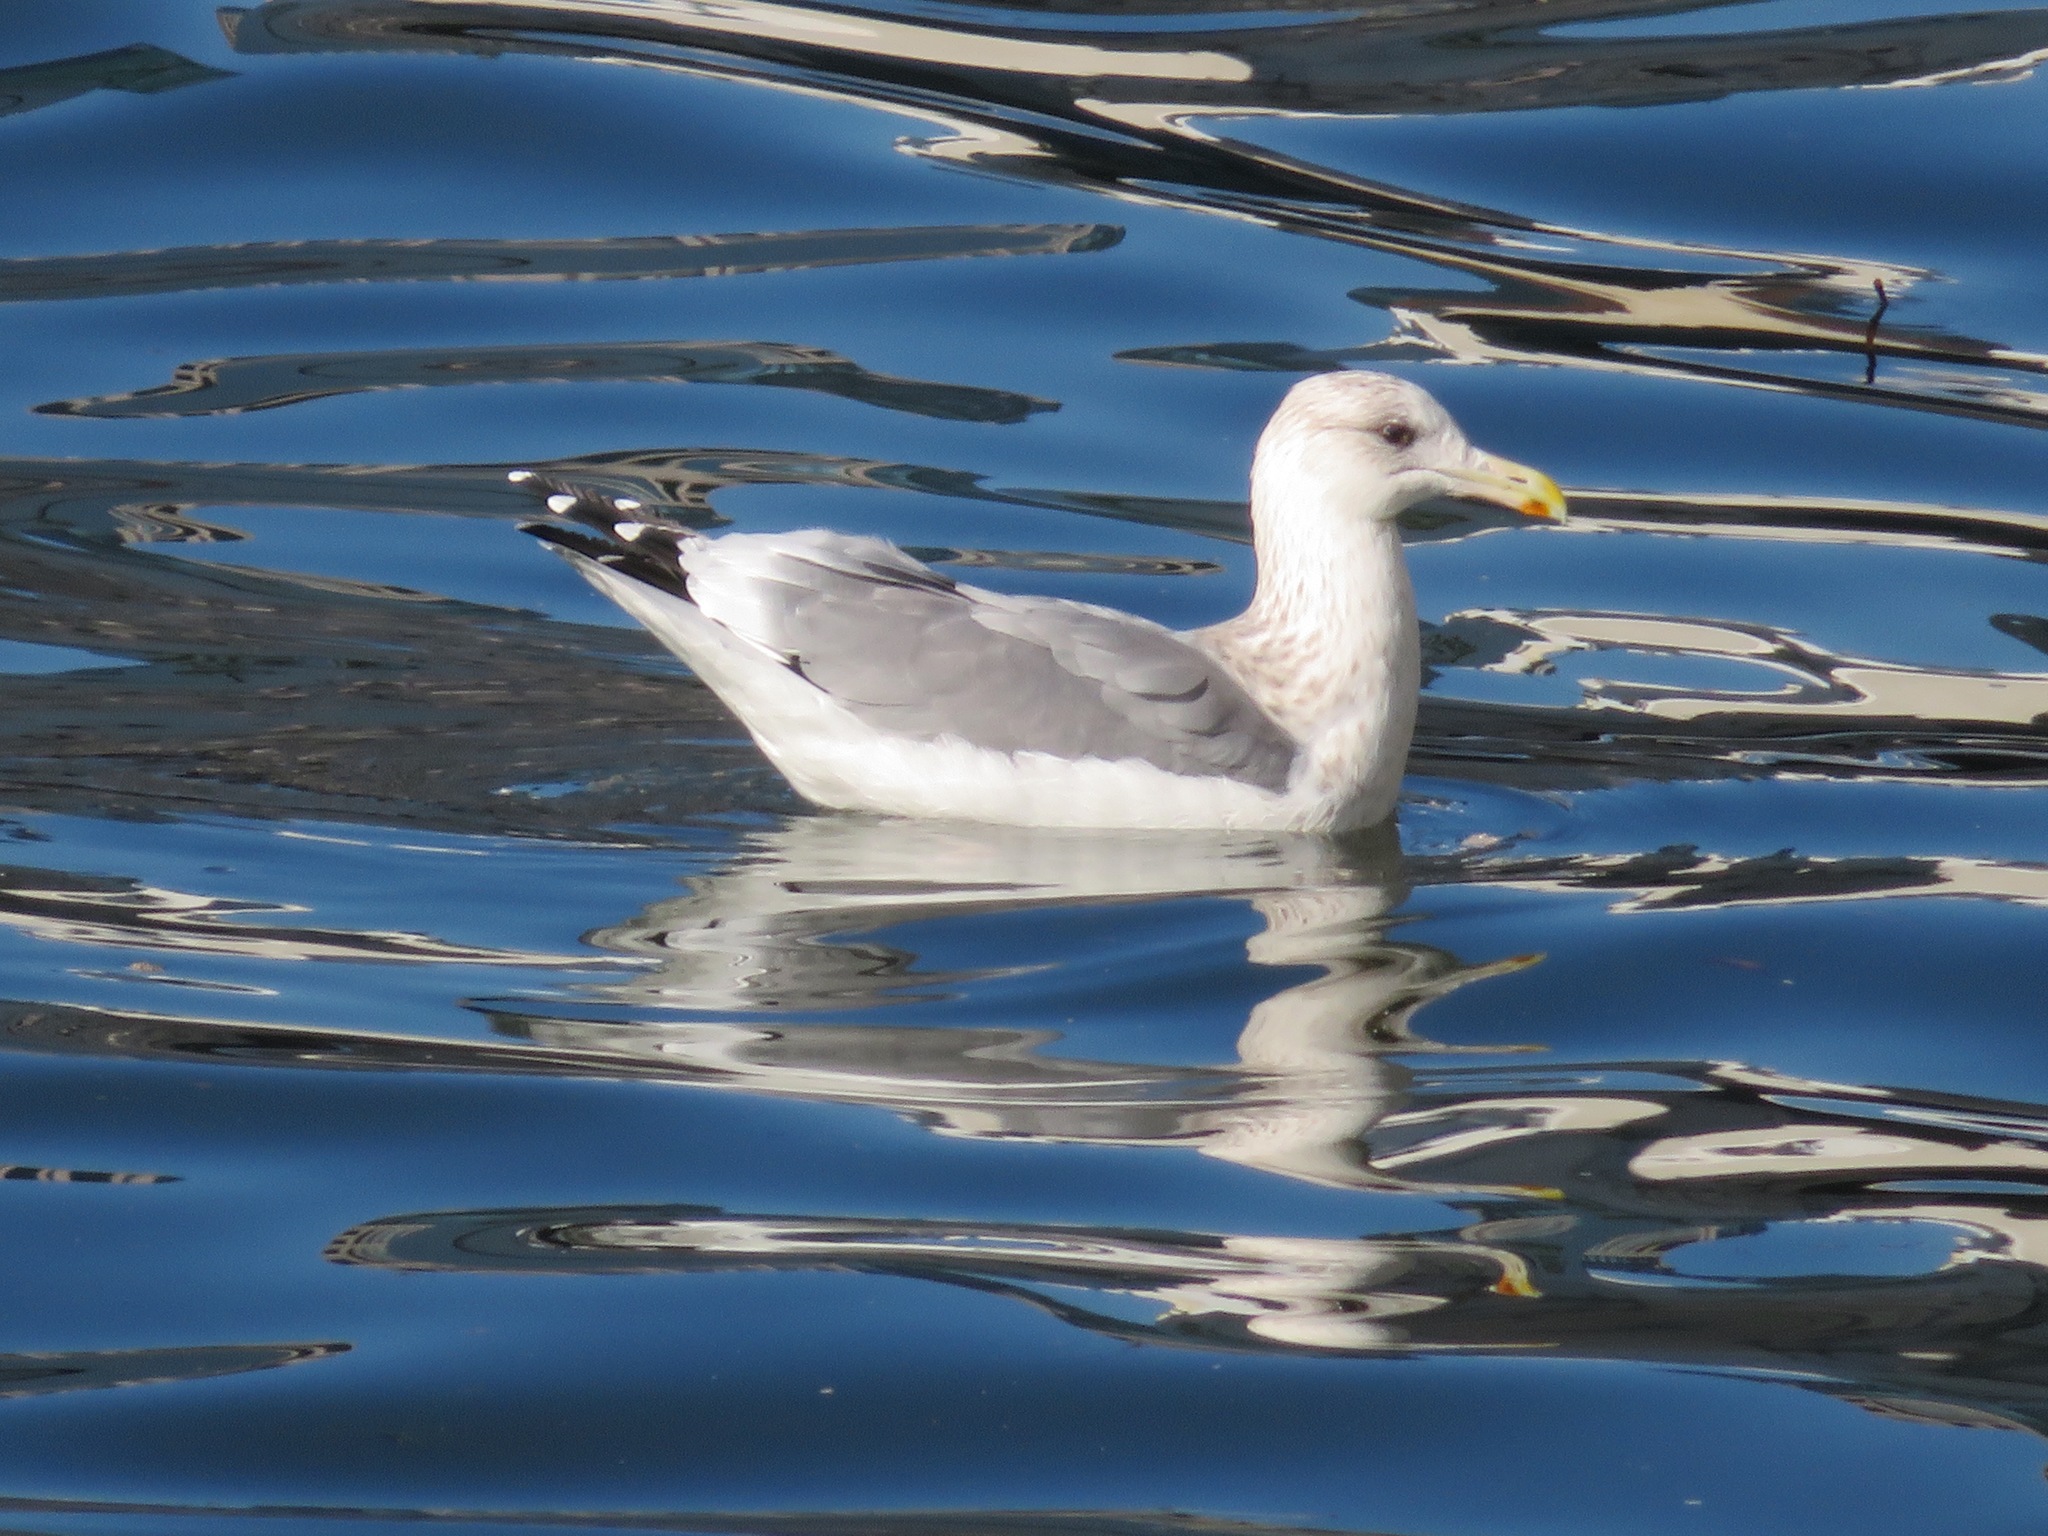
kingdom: Animalia
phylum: Chordata
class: Aves
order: Charadriiformes
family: Laridae
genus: Larus
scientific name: Larus vegae
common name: Vega gull
